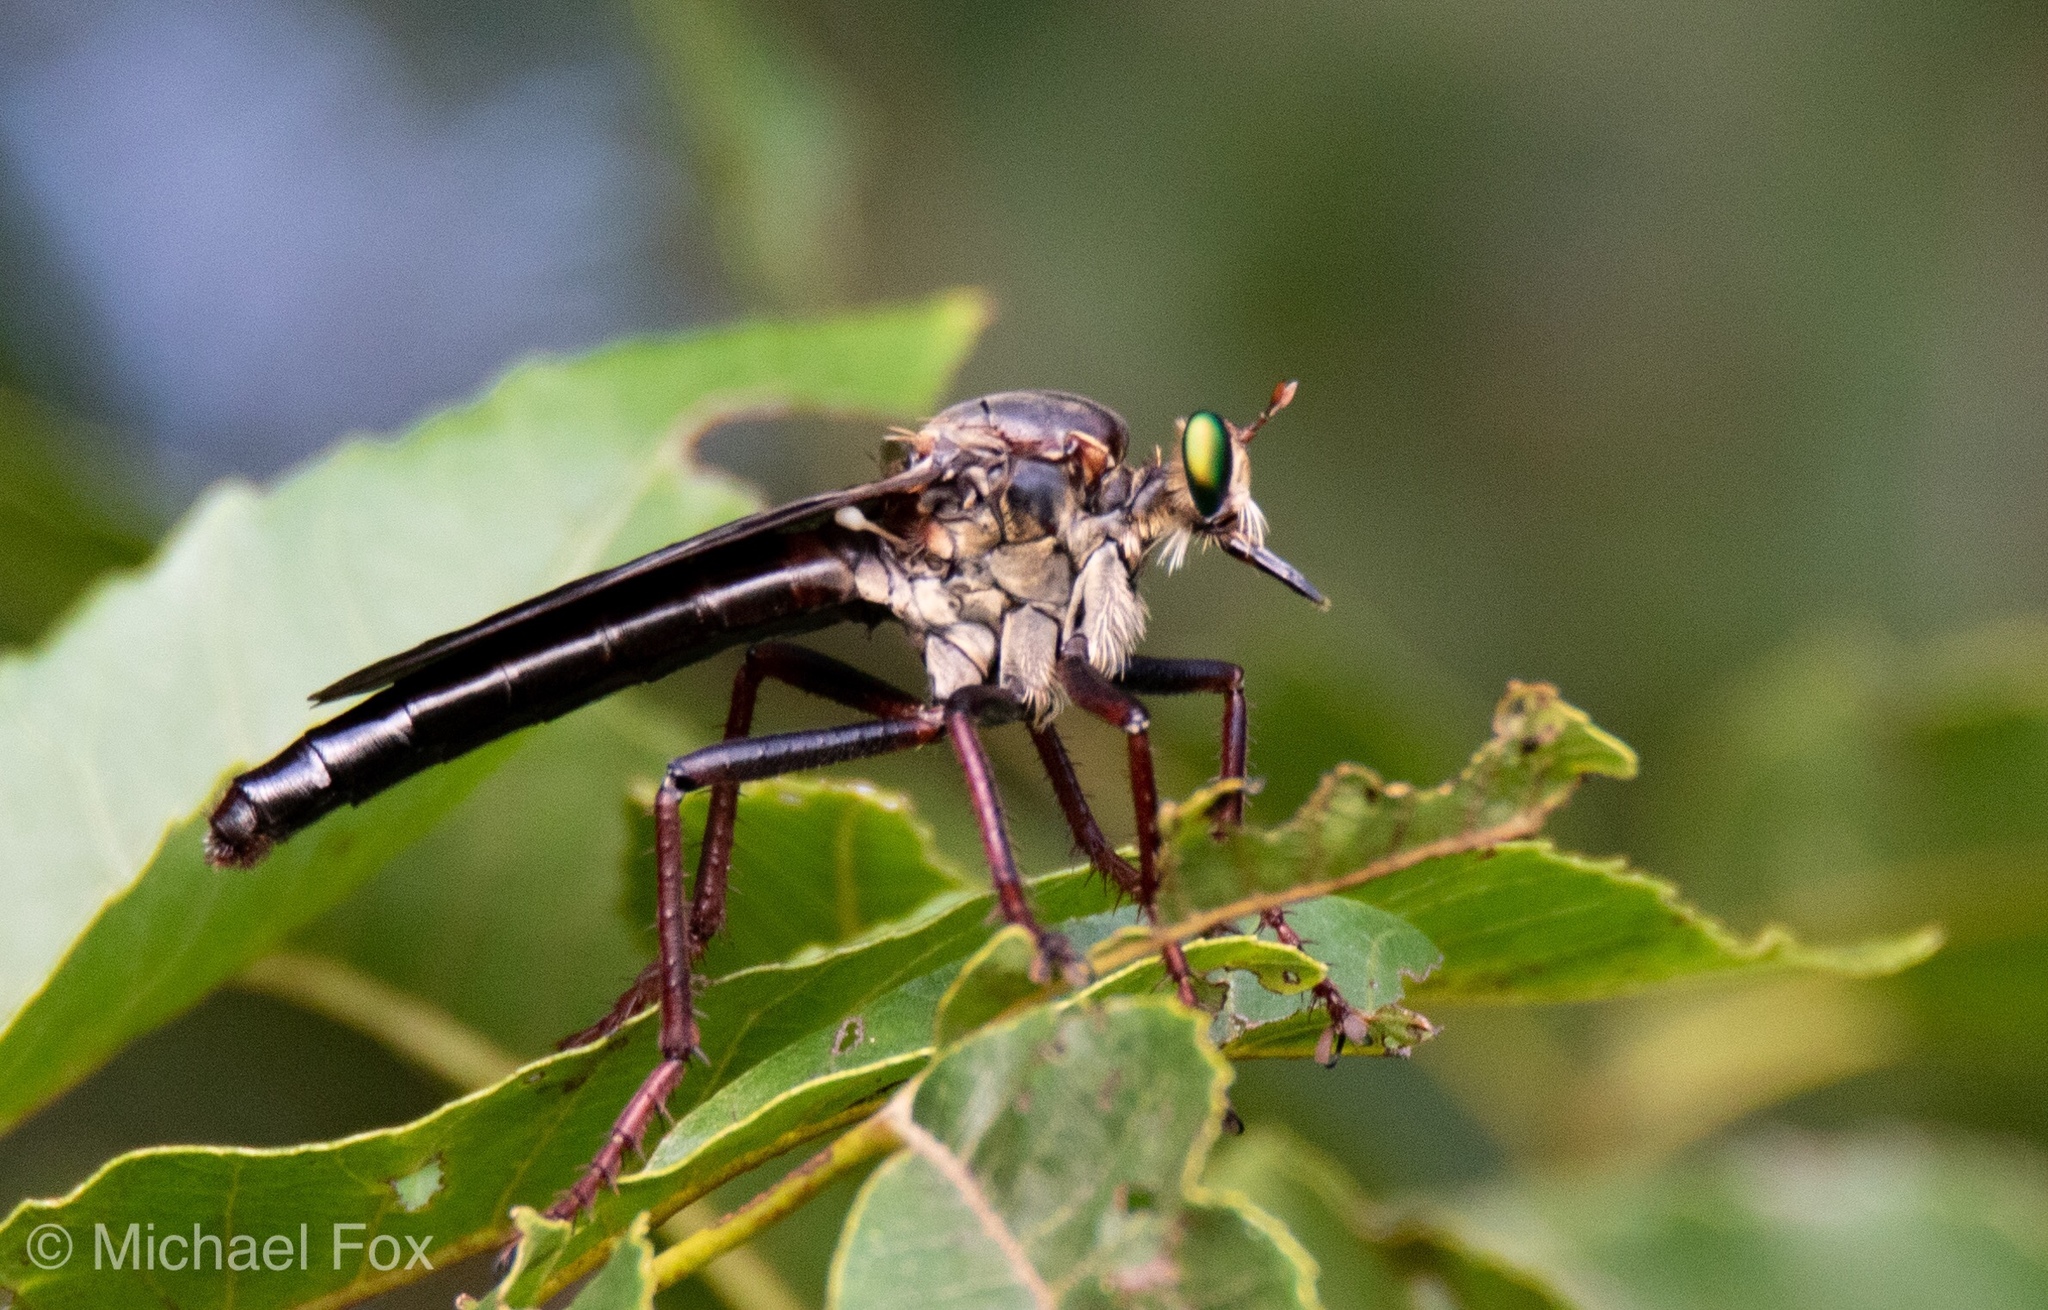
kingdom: Animalia
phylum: Arthropoda
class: Insecta
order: Diptera
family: Asilidae
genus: Microstylum
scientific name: Microstylum morosum
